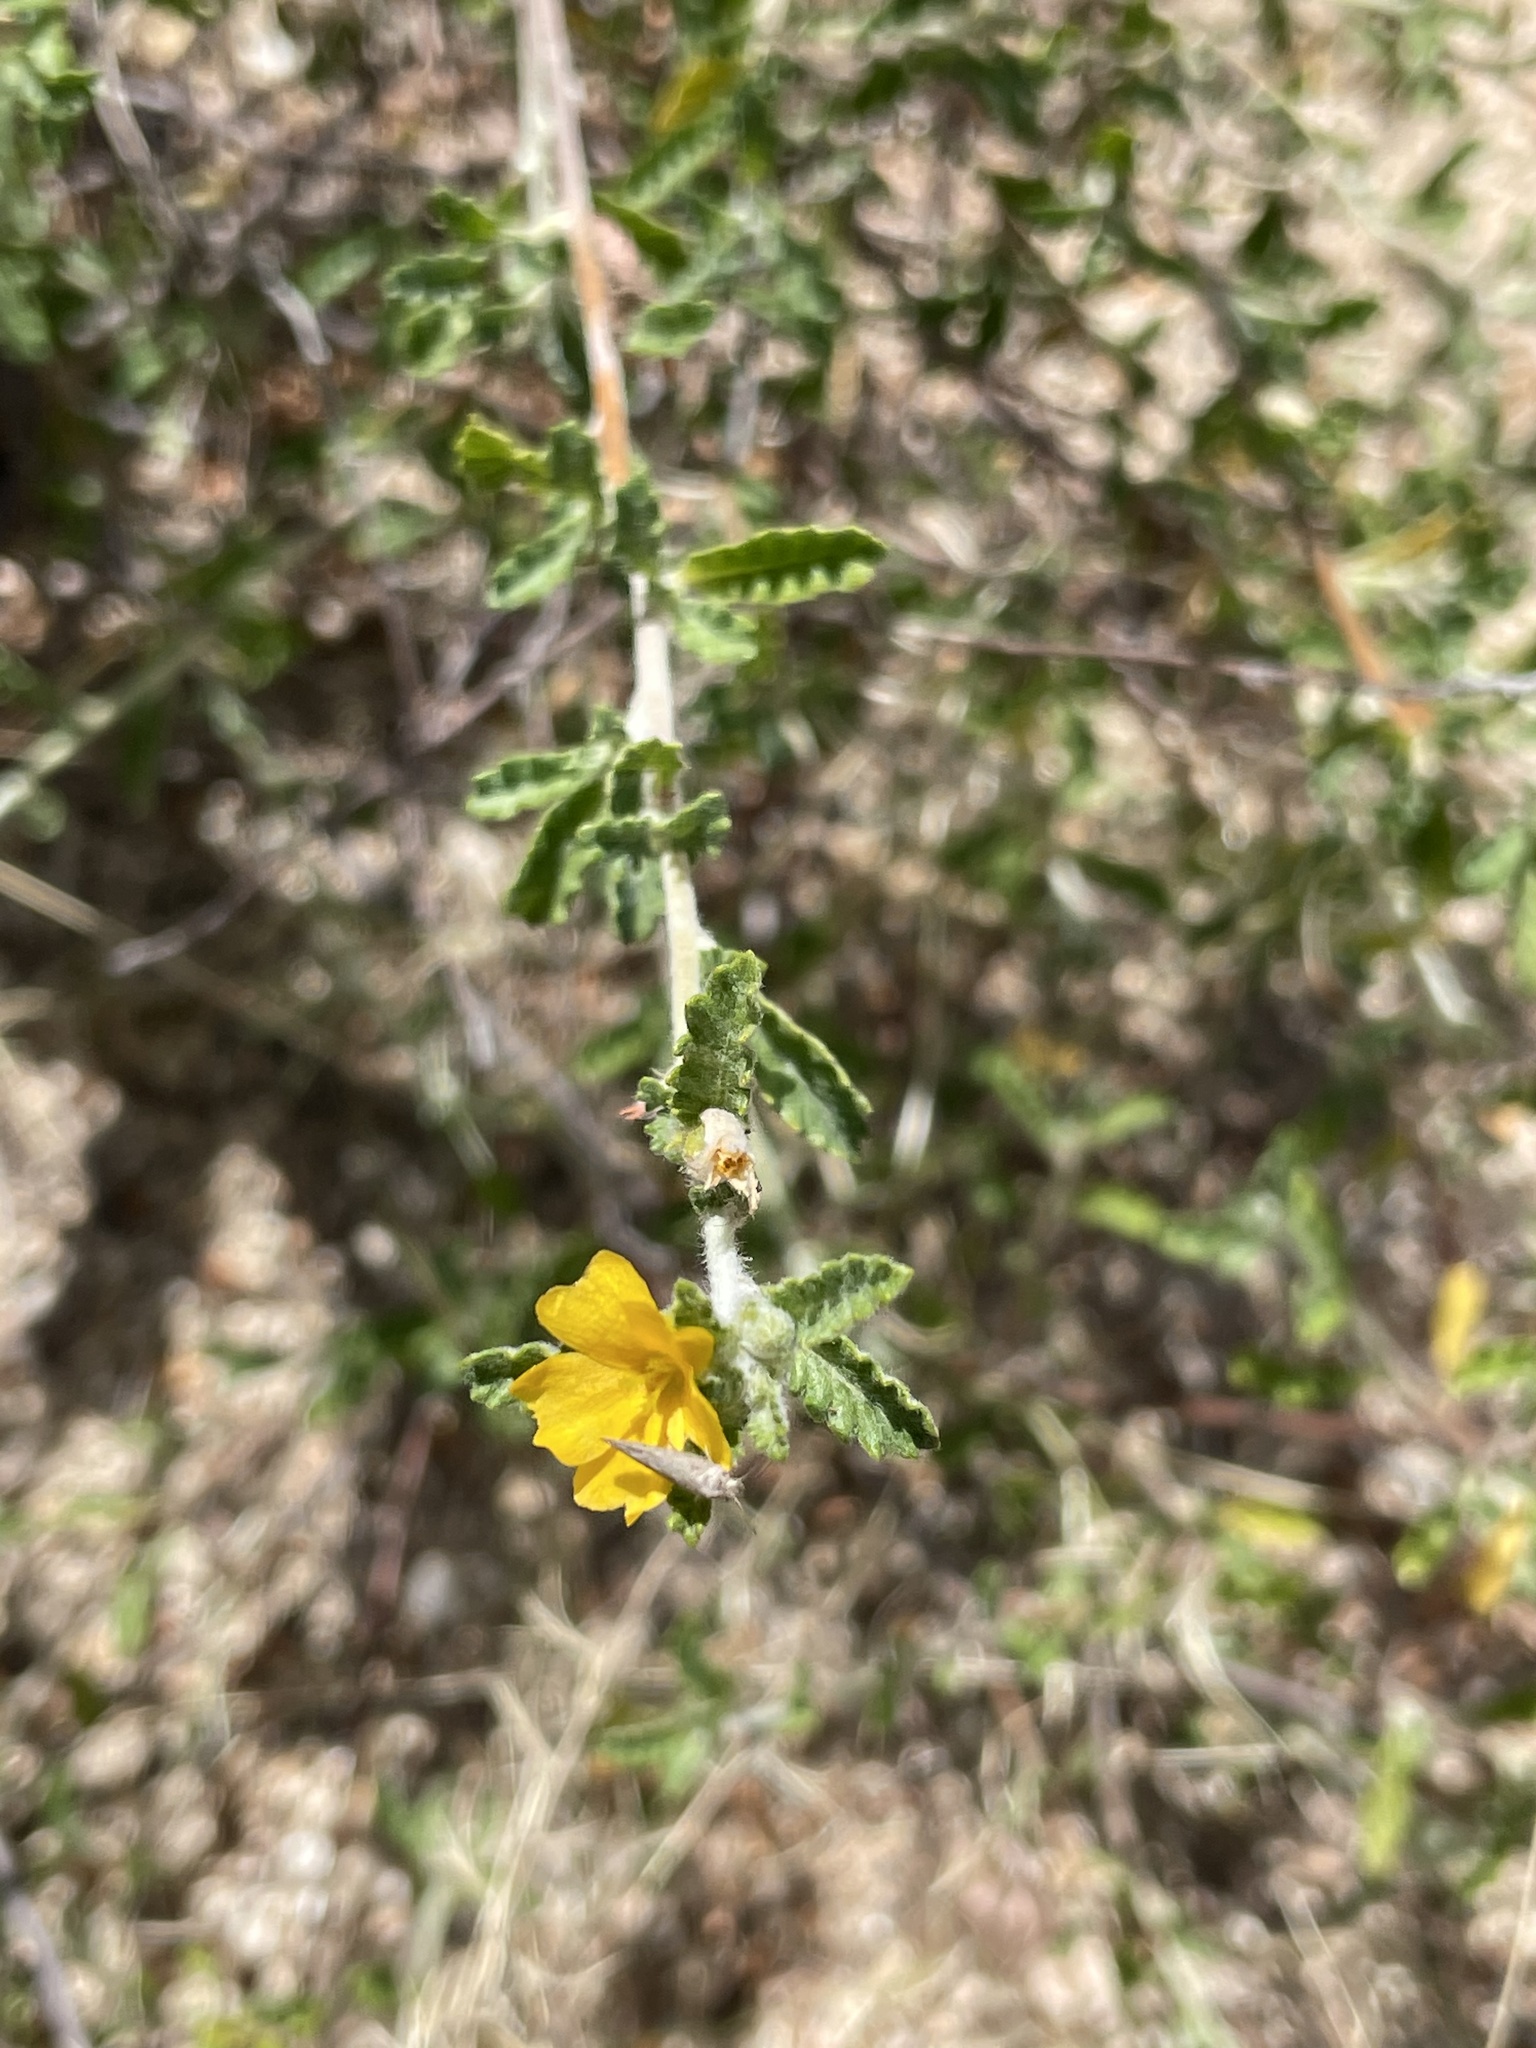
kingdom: Plantae
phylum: Tracheophyta
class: Magnoliopsida
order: Malpighiales
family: Turneraceae
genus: Turnera
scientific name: Turnera diffusa
